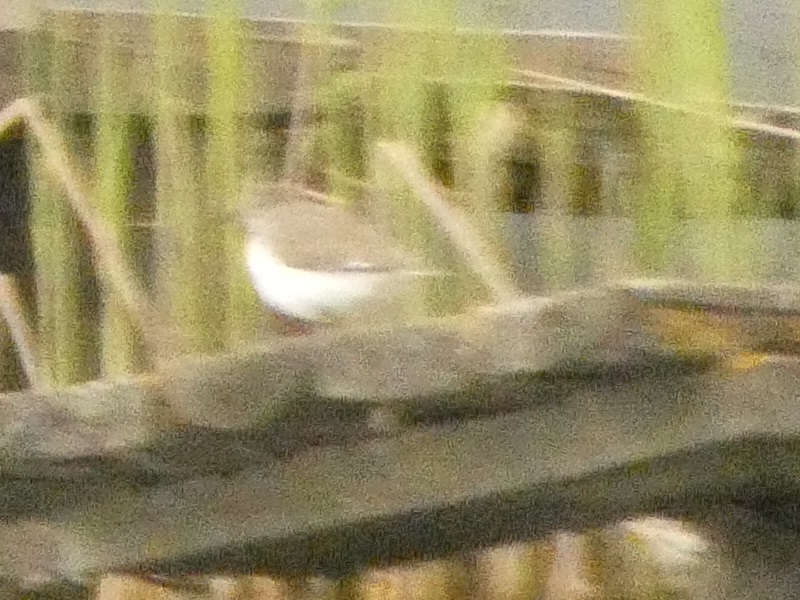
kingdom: Animalia
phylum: Chordata
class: Aves
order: Charadriiformes
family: Scolopacidae
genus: Actitis
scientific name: Actitis hypoleucos
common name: Common sandpiper
